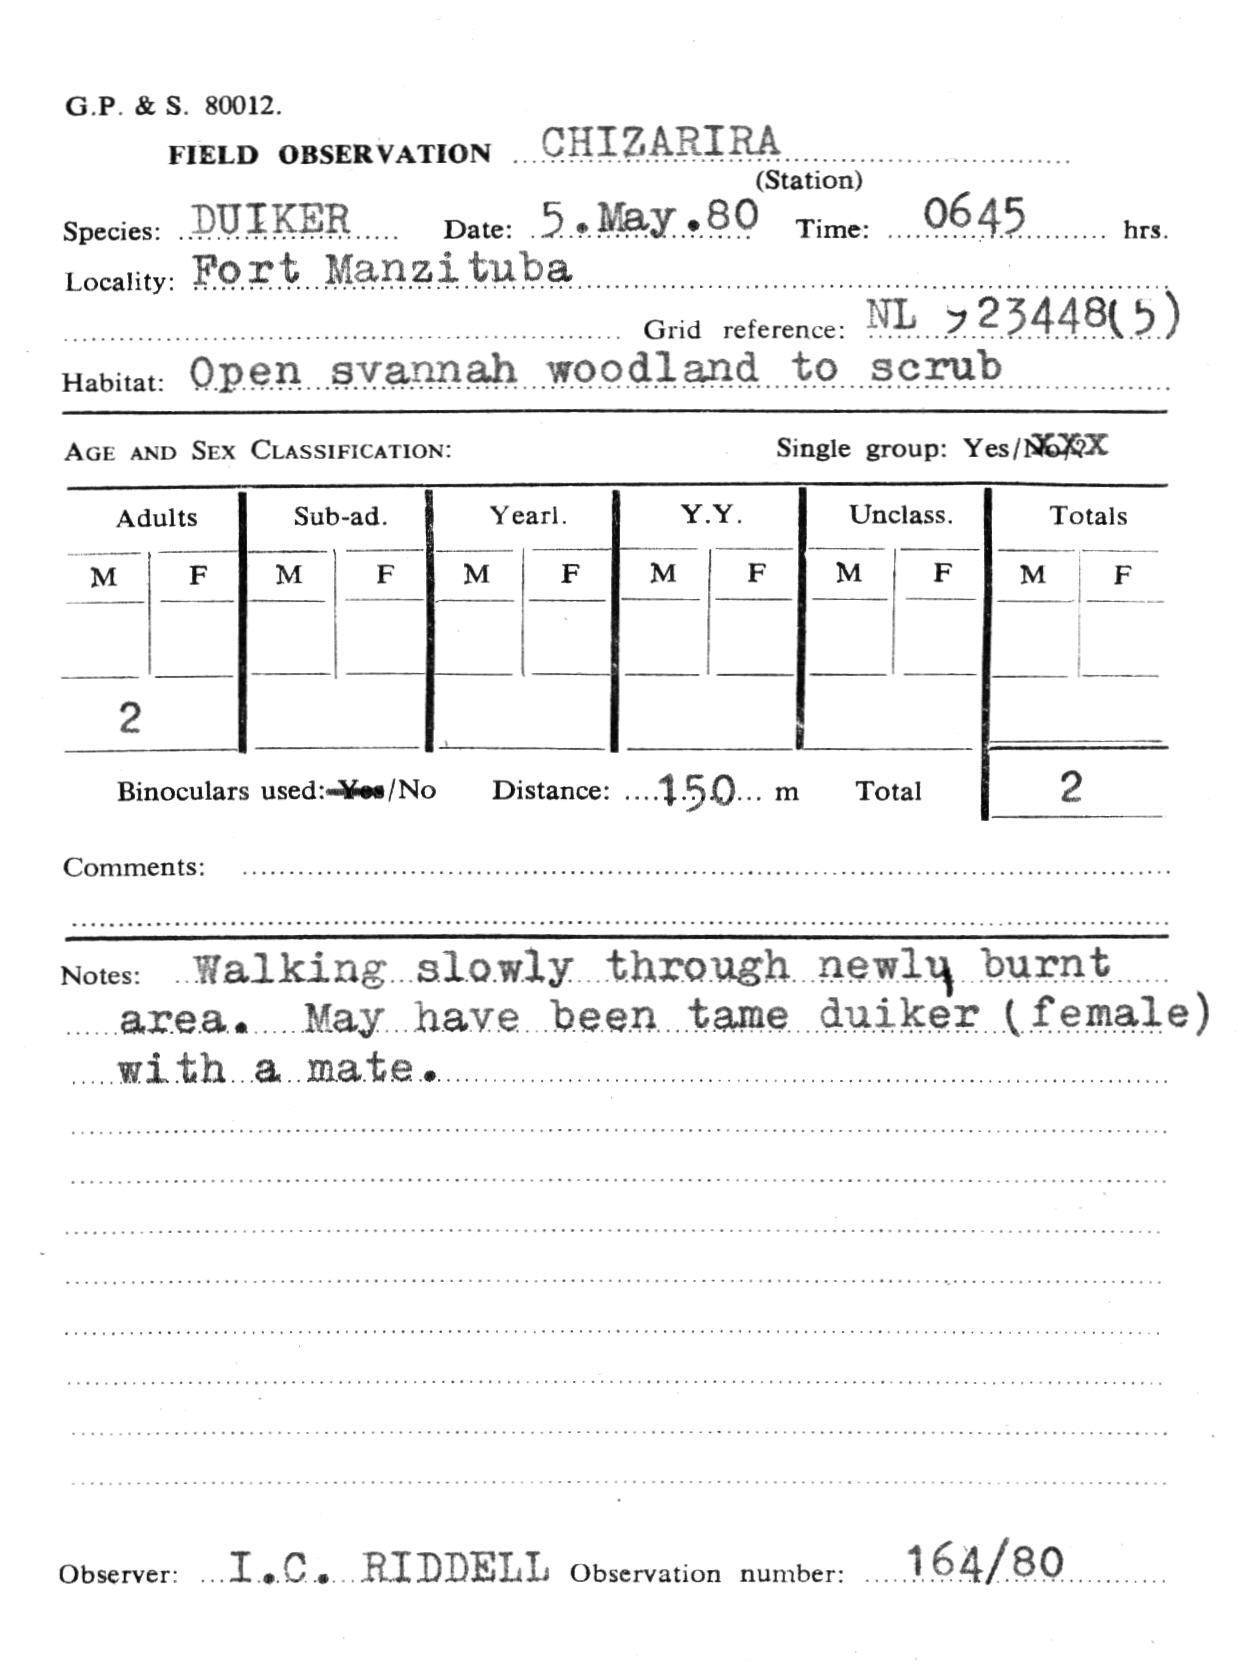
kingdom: Animalia
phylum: Chordata
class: Mammalia
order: Artiodactyla
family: Bovidae
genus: Sylvicapra
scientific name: Sylvicapra grimmia
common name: Bush duiker
